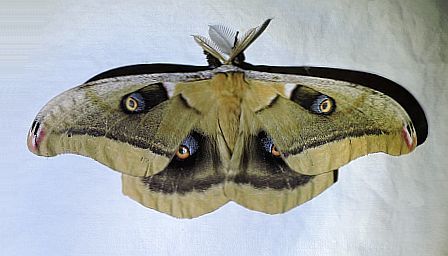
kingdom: Animalia
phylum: Arthropoda
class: Insecta
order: Lepidoptera
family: Saturniidae
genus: Antheraea
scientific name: Antheraea oculea
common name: Arizona polyphemus moth
